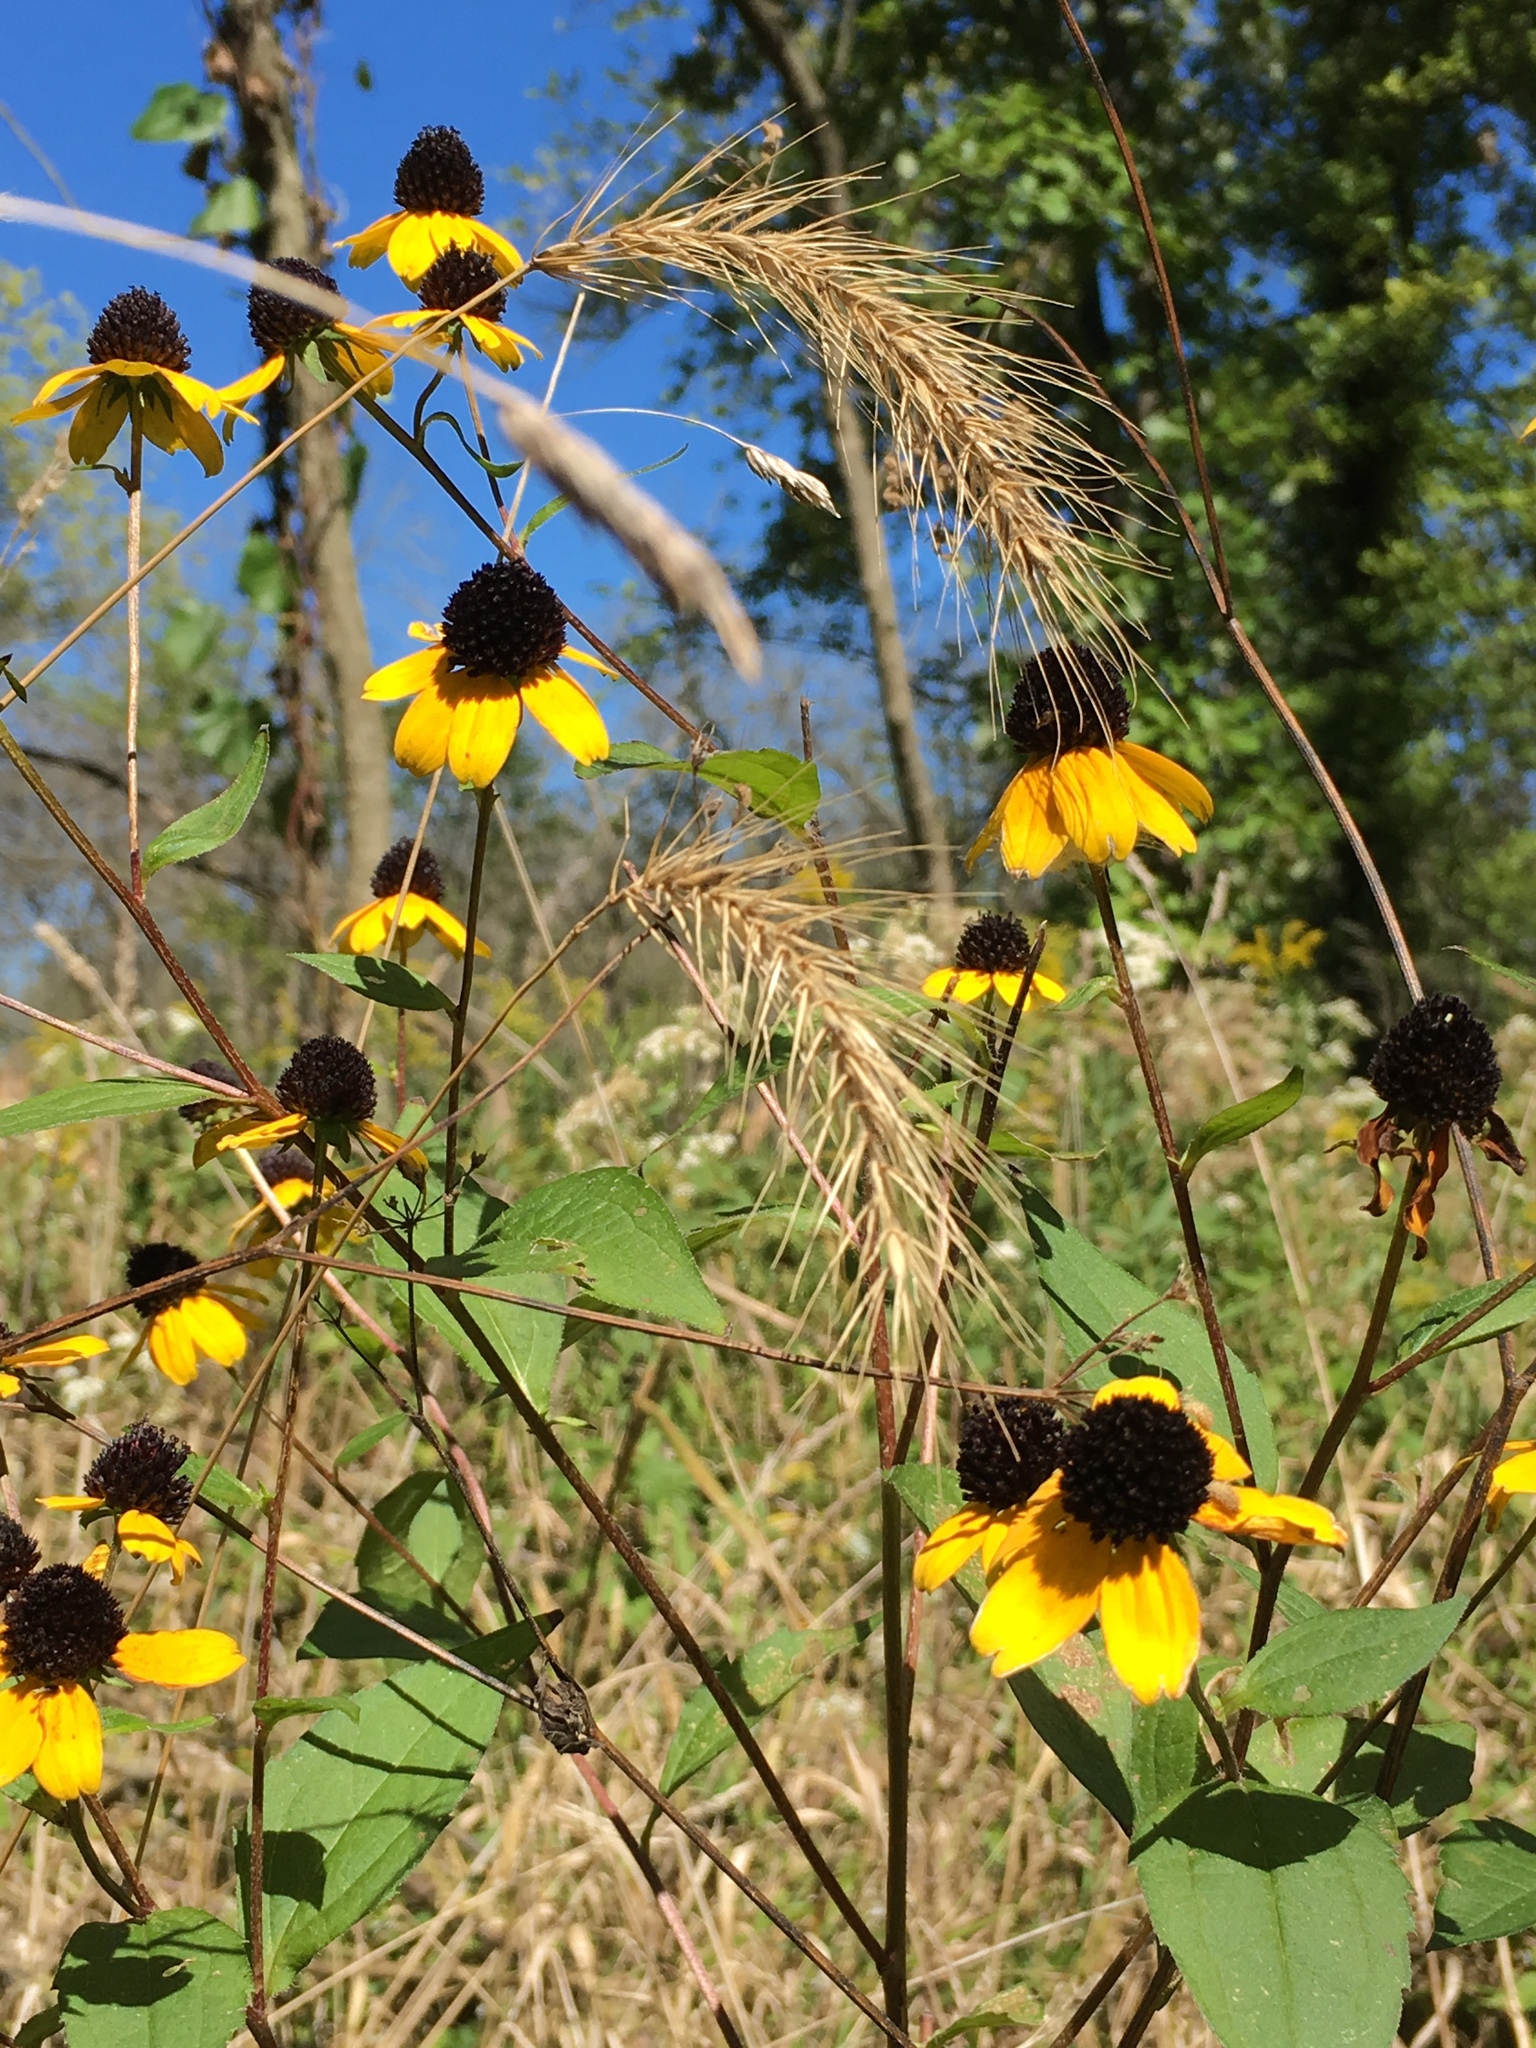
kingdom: Plantae
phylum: Tracheophyta
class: Magnoliopsida
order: Asterales
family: Asteraceae
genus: Rudbeckia
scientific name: Rudbeckia triloba
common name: Thin-leaved coneflower
